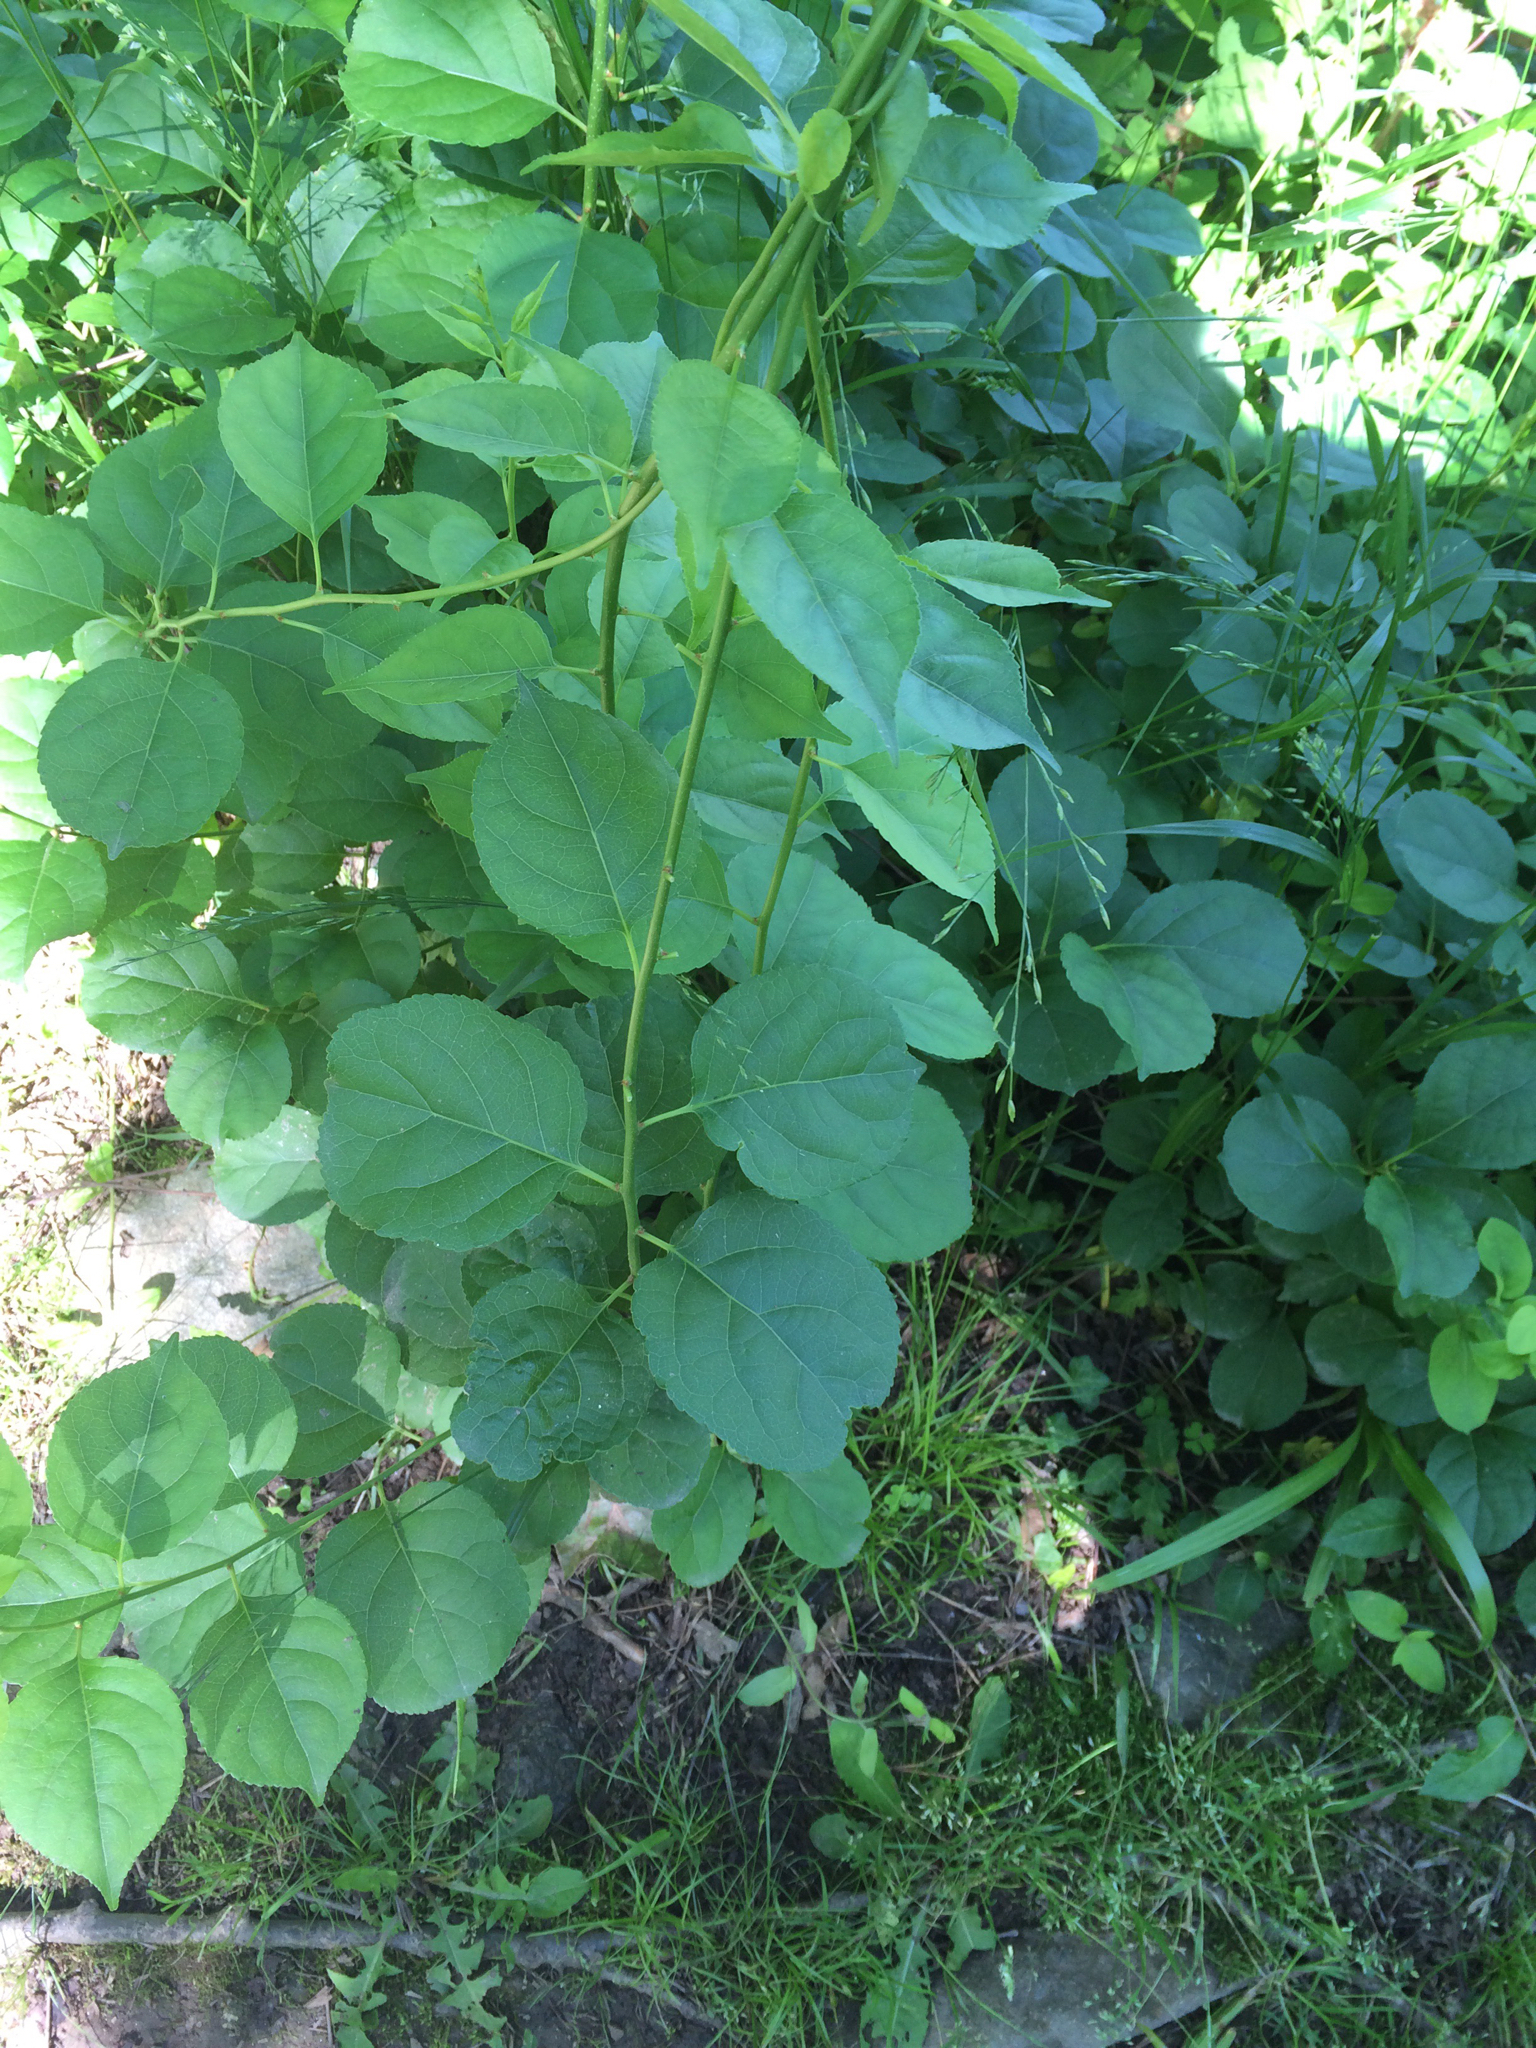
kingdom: Plantae
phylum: Tracheophyta
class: Magnoliopsida
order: Celastrales
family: Celastraceae
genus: Celastrus
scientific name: Celastrus orbiculatus
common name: Oriental bittersweet
